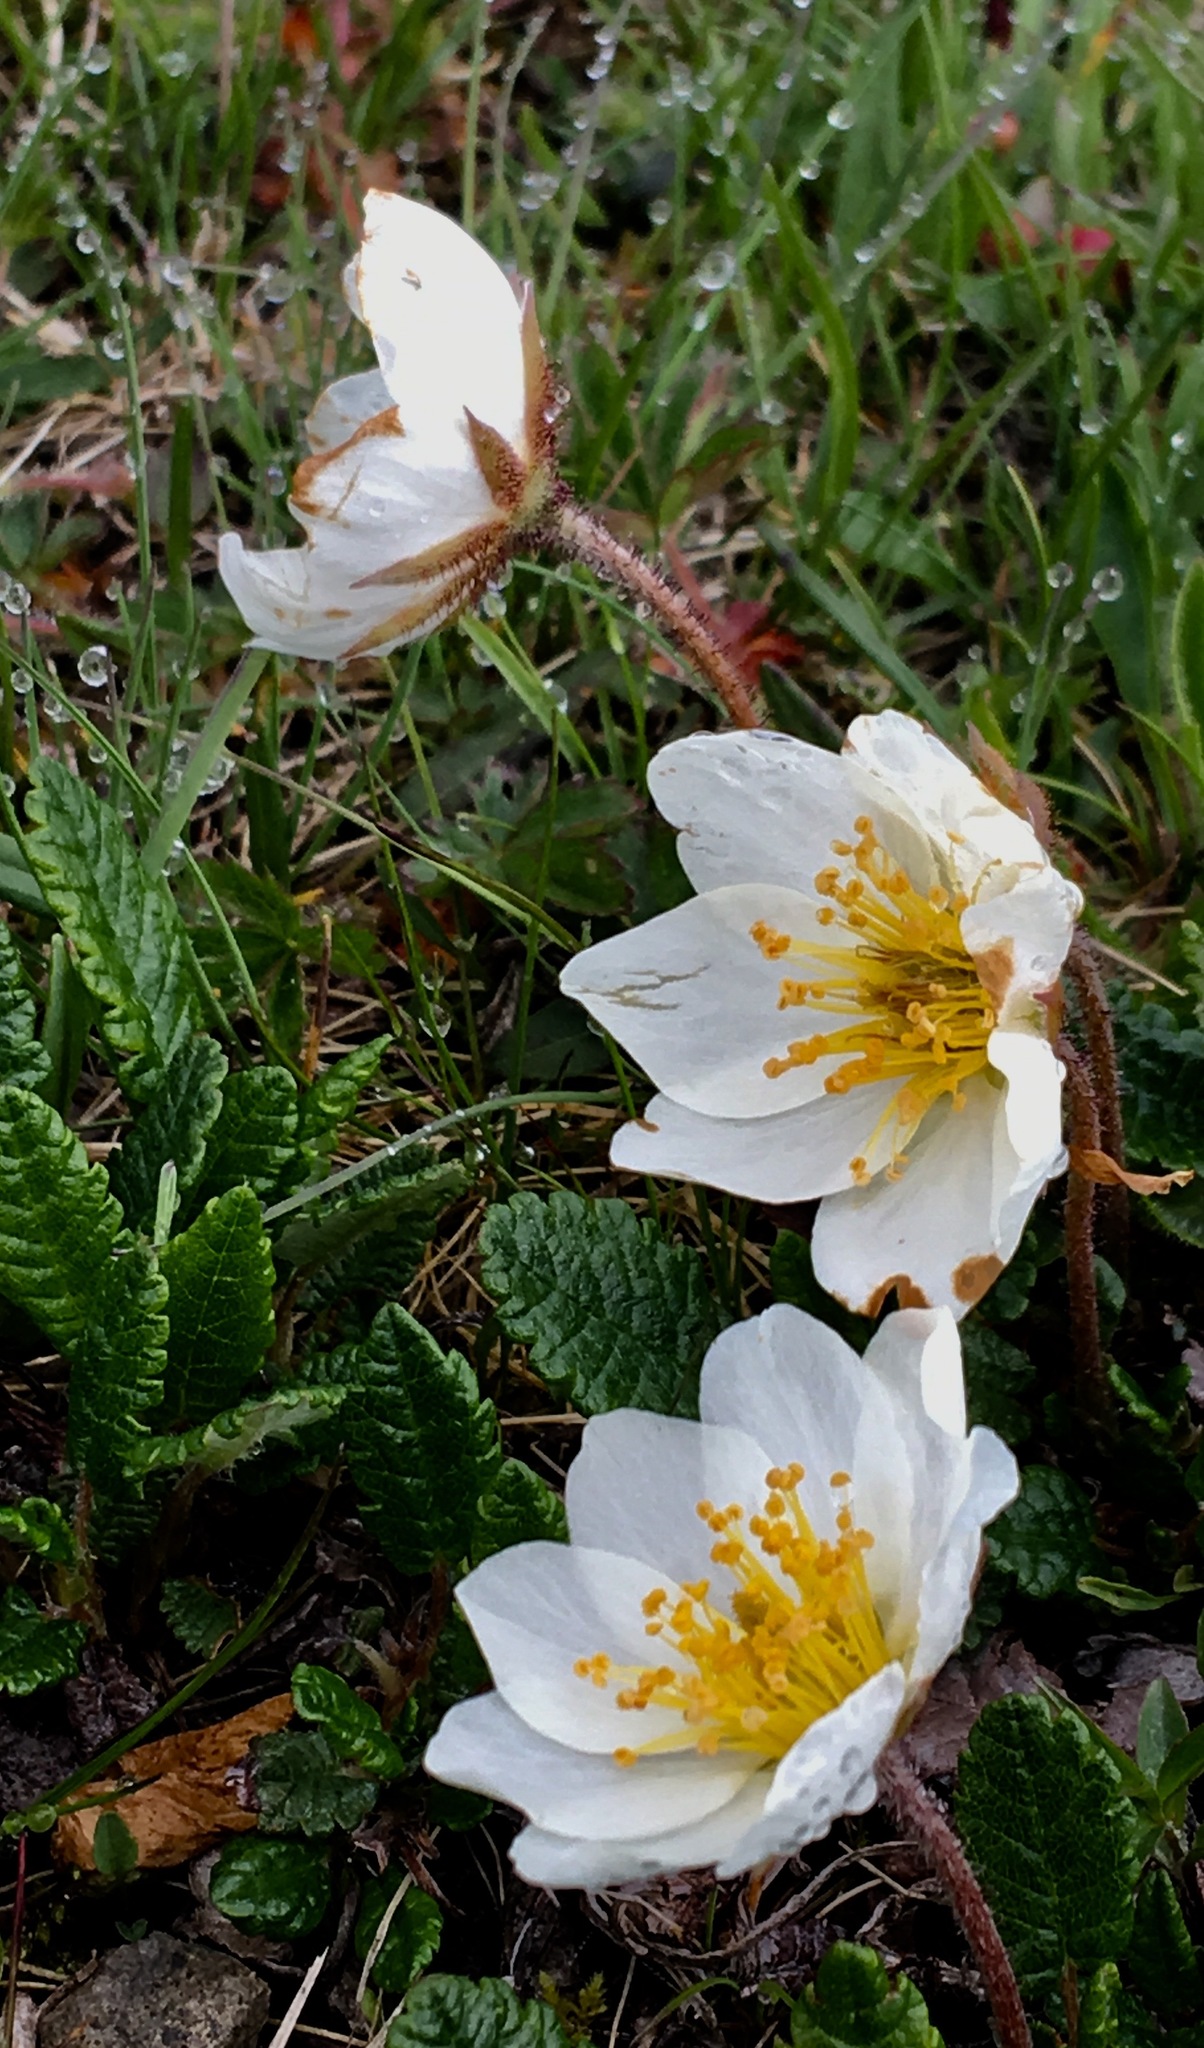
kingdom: Plantae
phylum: Tracheophyta
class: Magnoliopsida
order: Rosales
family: Rosaceae
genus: Dryas
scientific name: Dryas octopetala
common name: Eight-petal mountain-avens
